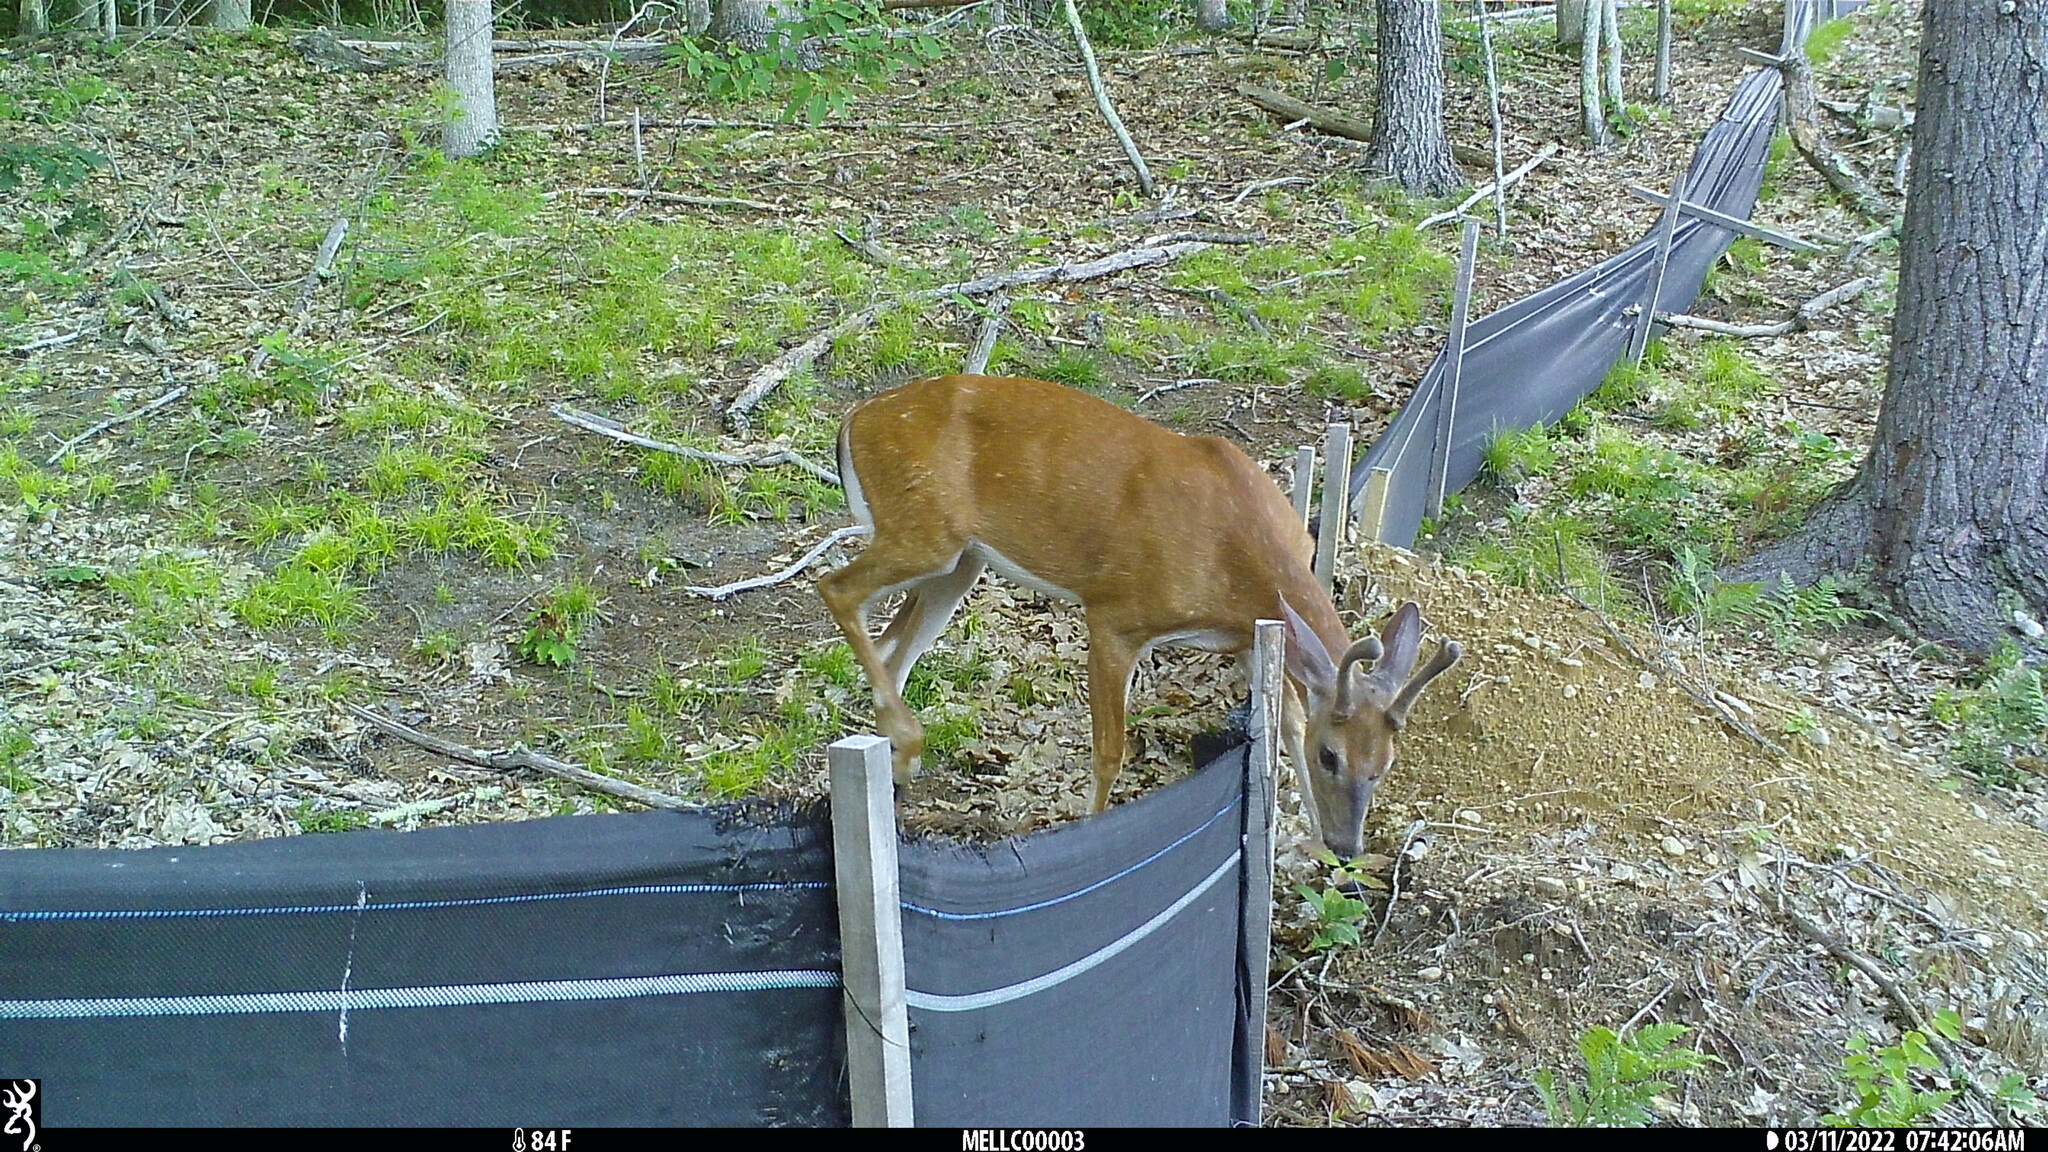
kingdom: Animalia
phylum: Chordata
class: Mammalia
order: Artiodactyla
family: Cervidae
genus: Odocoileus
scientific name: Odocoileus virginianus
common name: White-tailed deer
